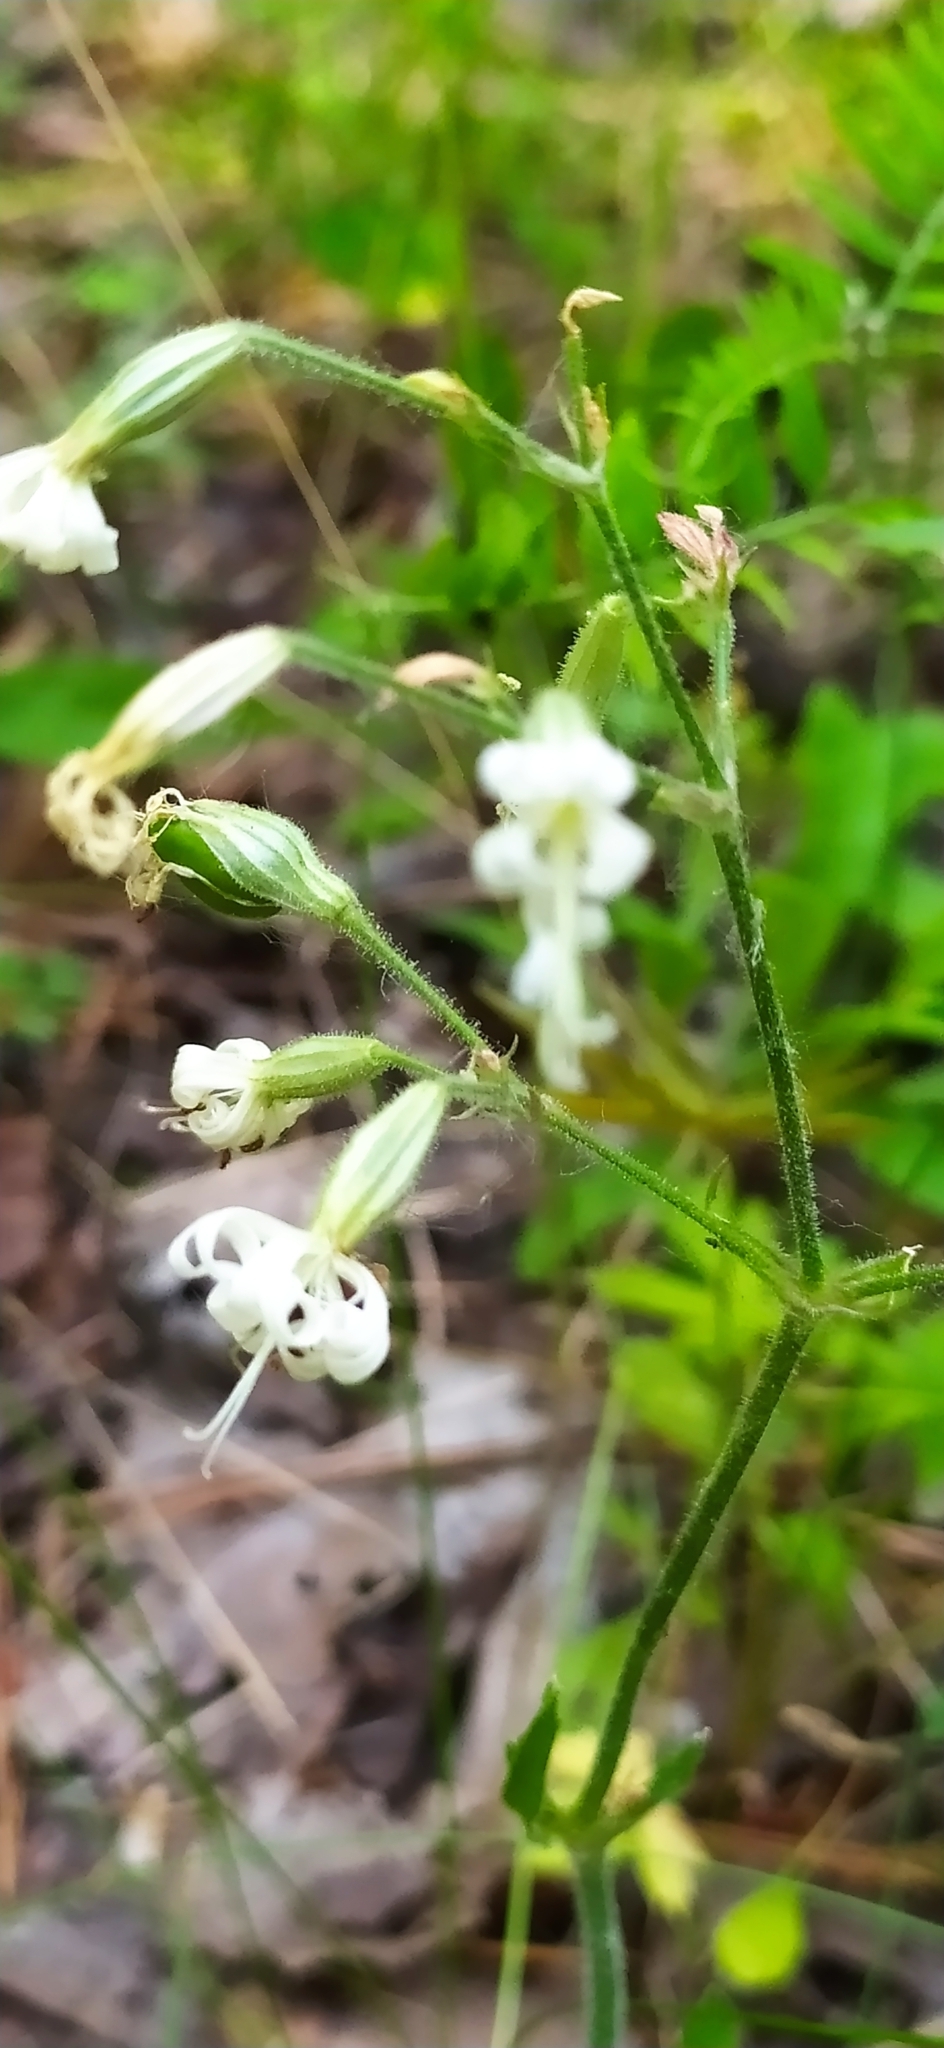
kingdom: Plantae
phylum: Tracheophyta
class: Magnoliopsida
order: Caryophyllales
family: Caryophyllaceae
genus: Silene
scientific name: Silene nutans
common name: Nottingham catchfly
